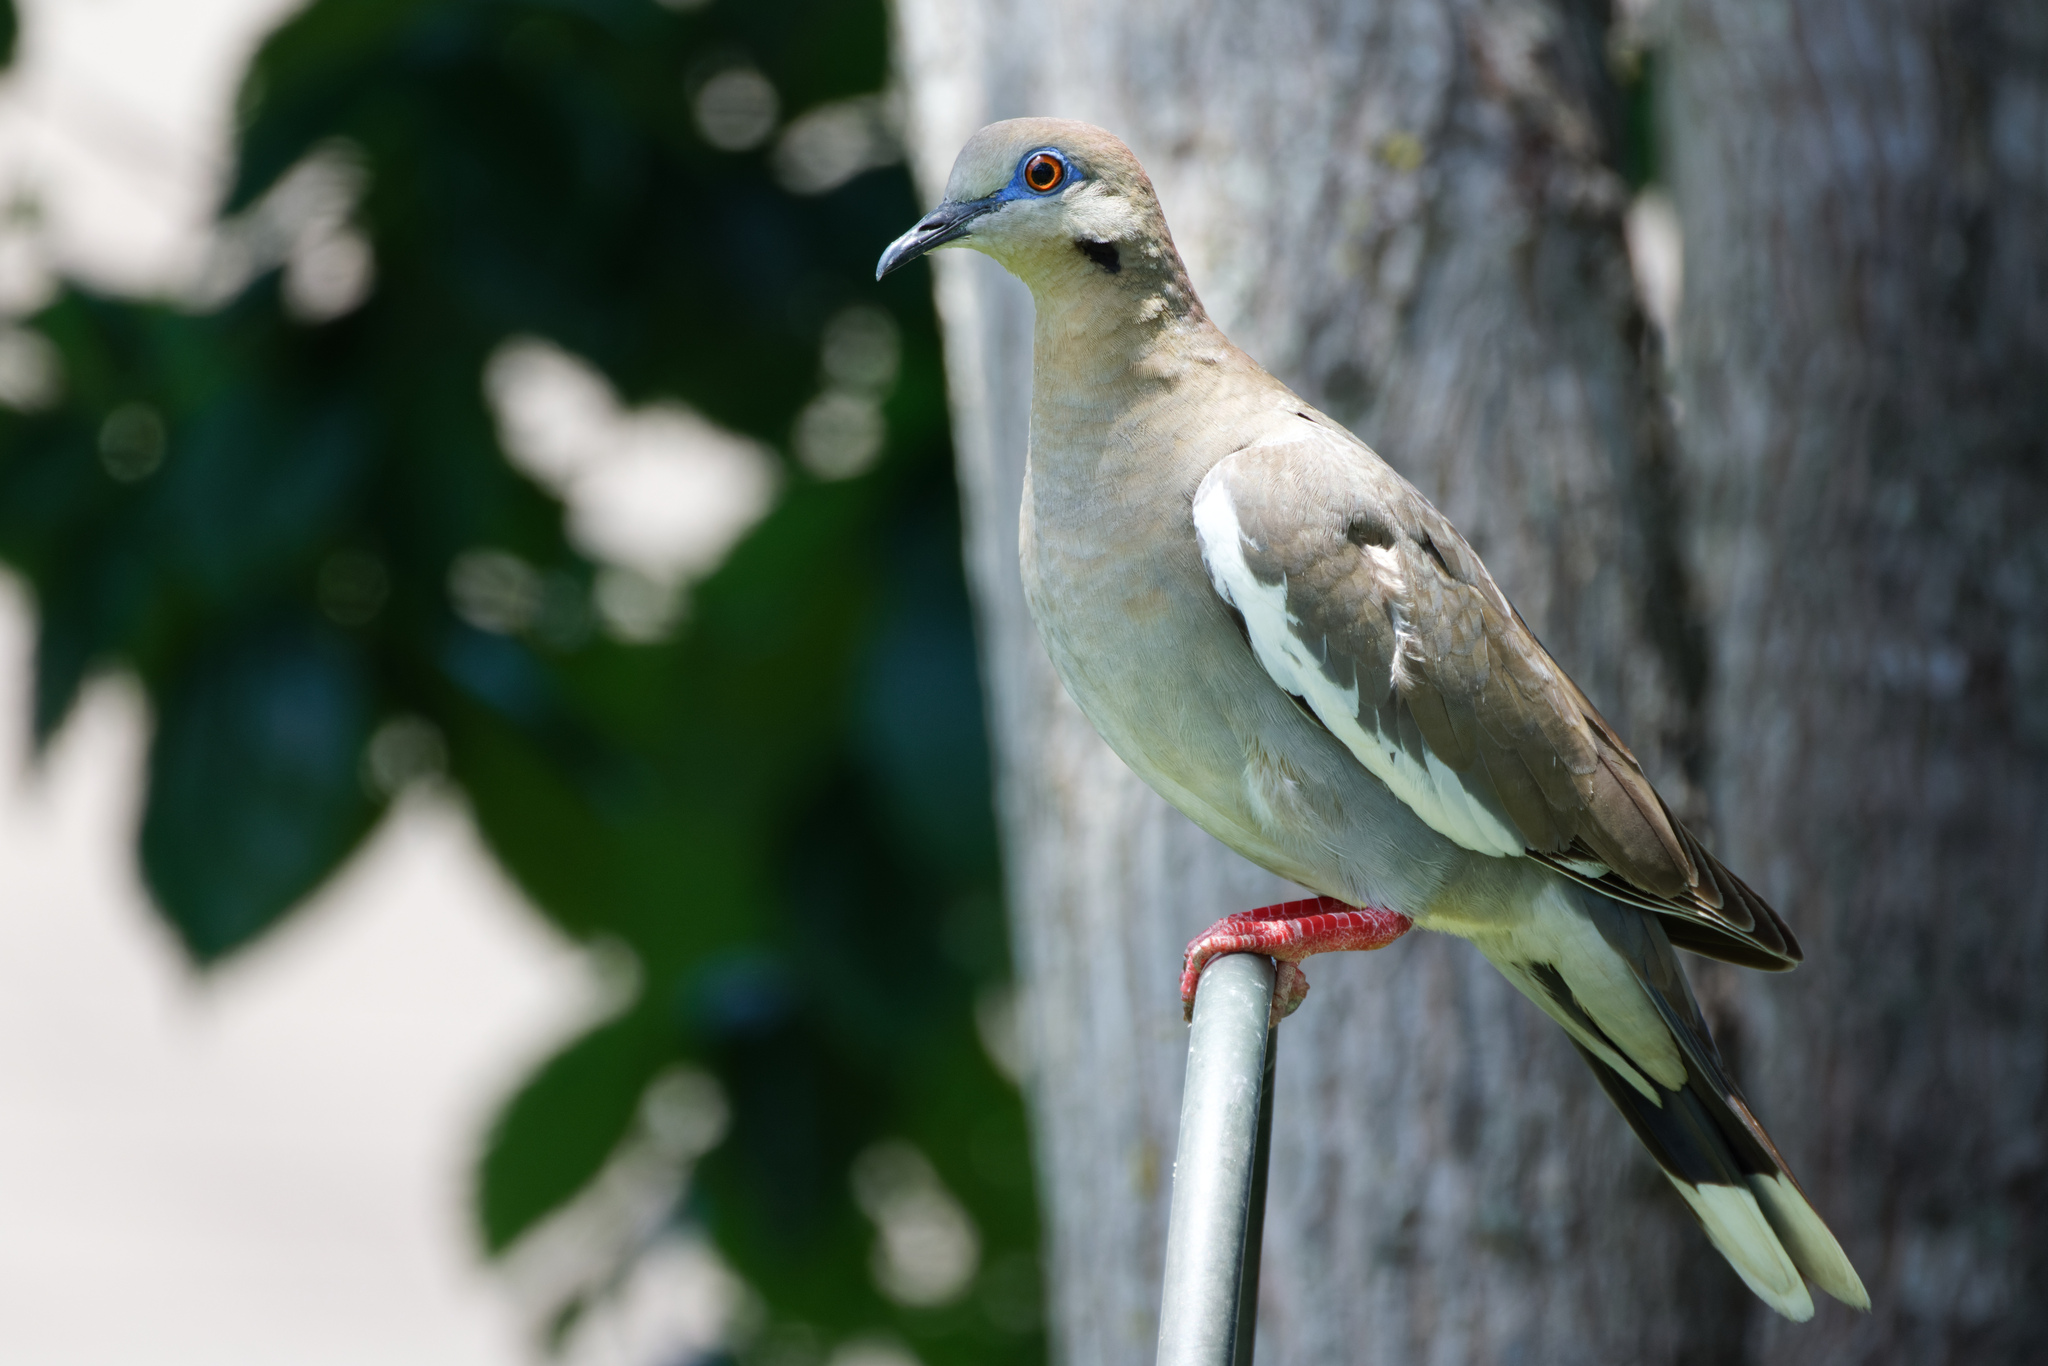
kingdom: Animalia
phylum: Chordata
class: Aves
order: Columbiformes
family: Columbidae
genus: Zenaida
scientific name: Zenaida asiatica
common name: White-winged dove
